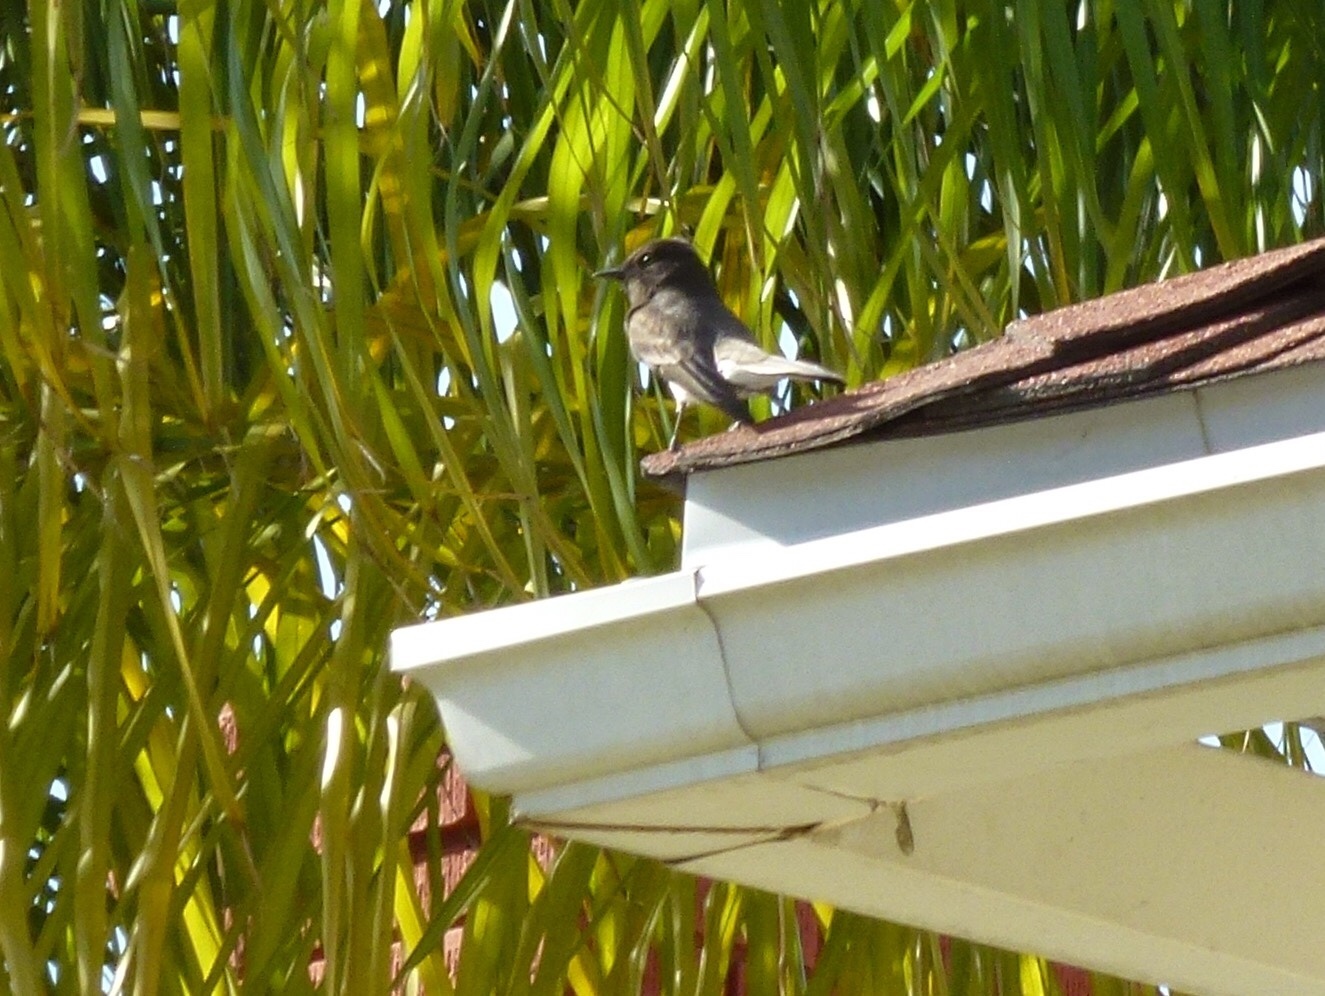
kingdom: Animalia
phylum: Chordata
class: Aves
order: Passeriformes
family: Tyrannidae
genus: Sayornis
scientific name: Sayornis nigricans
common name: Black phoebe
